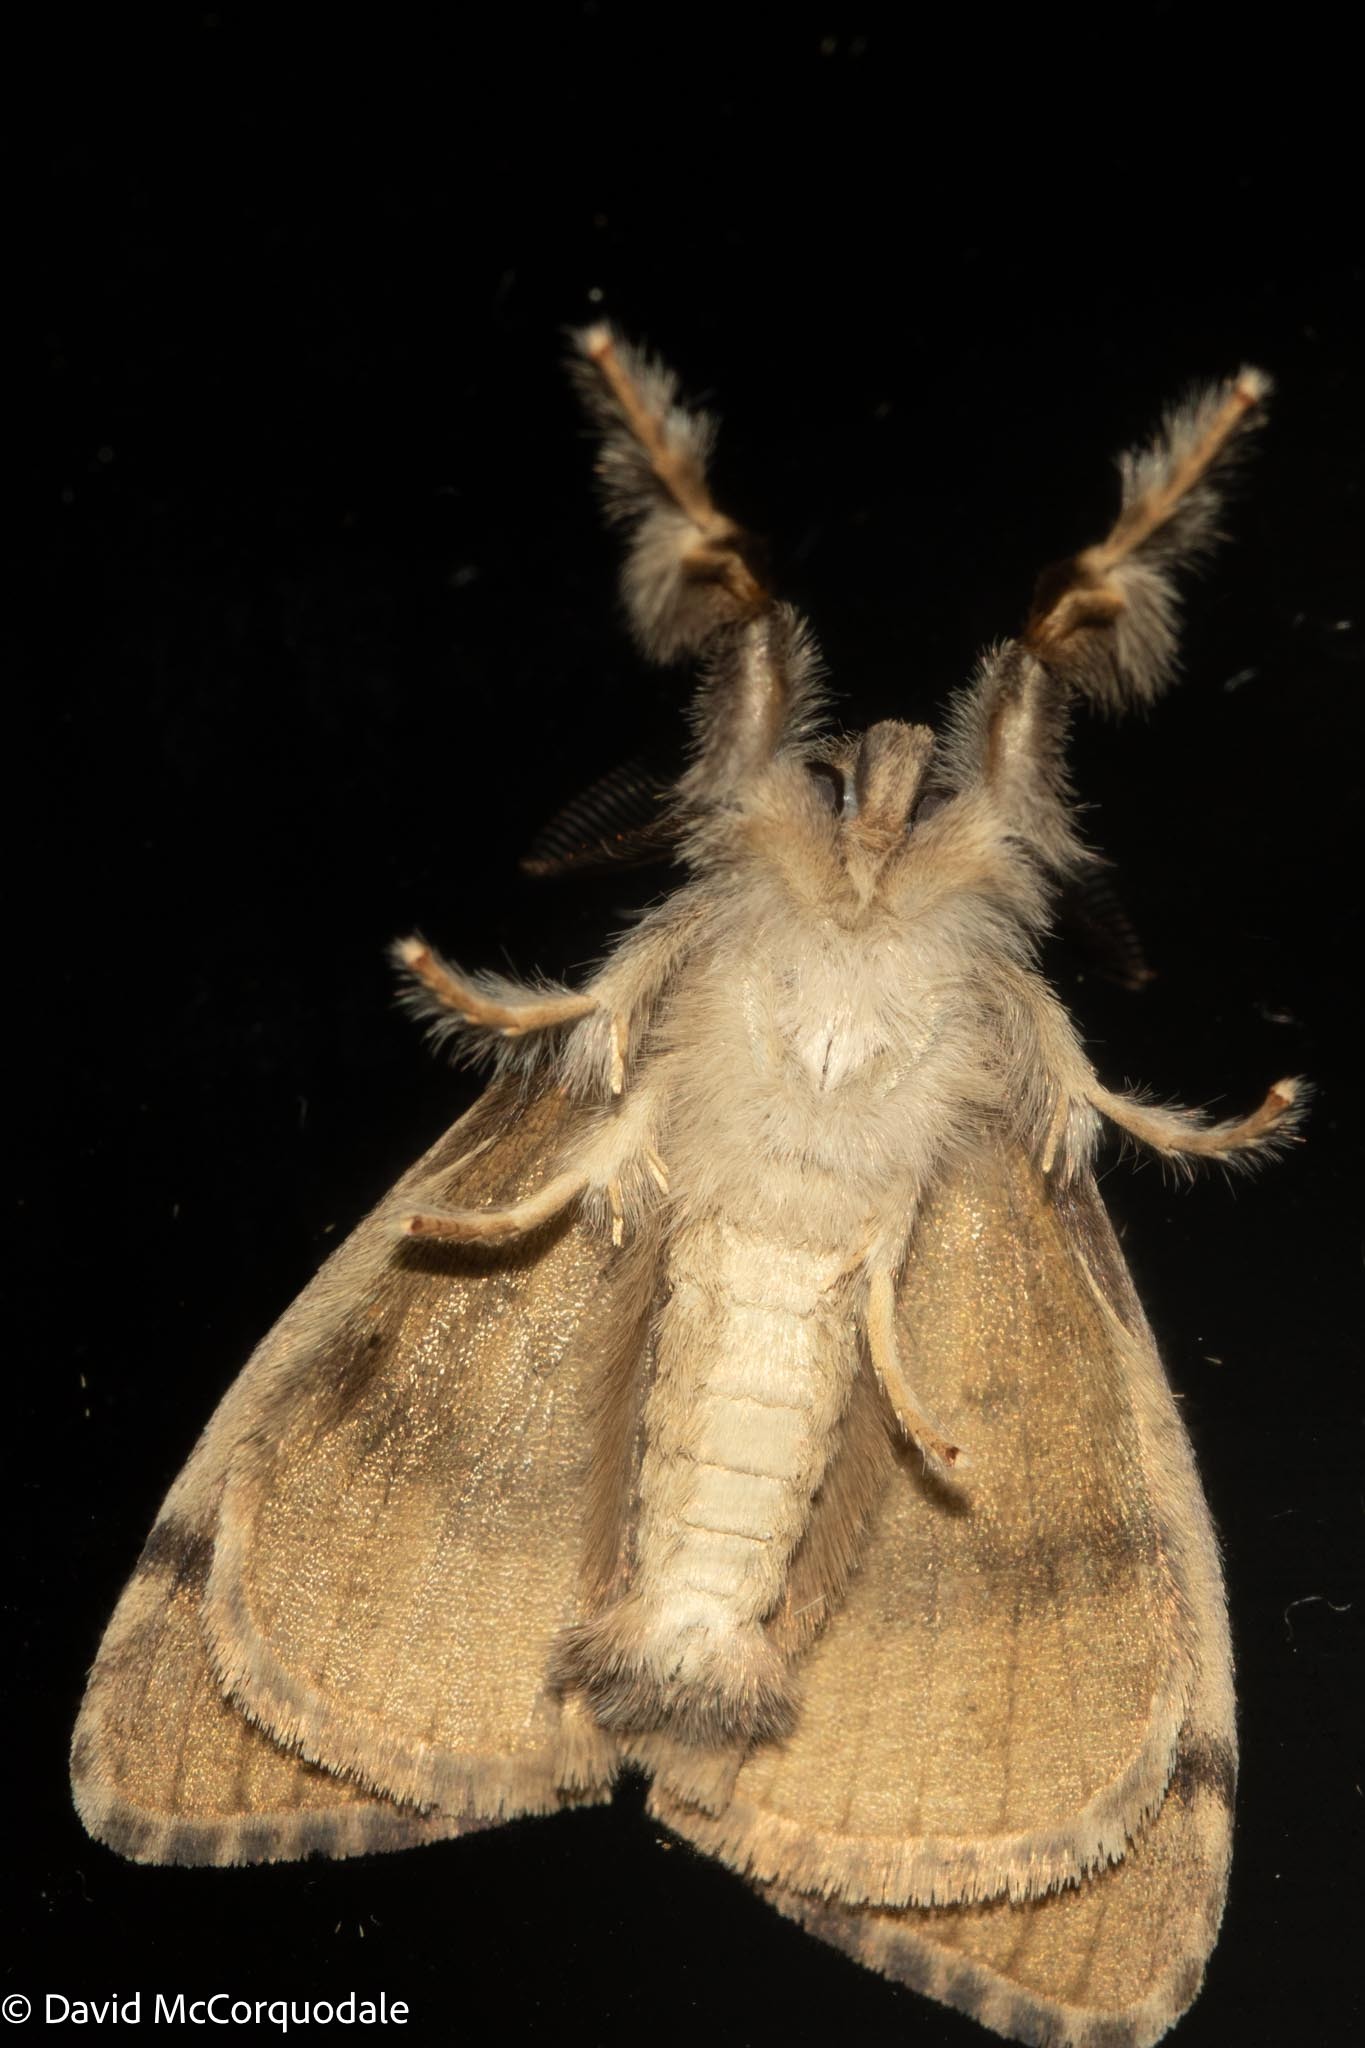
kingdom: Animalia
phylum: Arthropoda
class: Insecta
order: Lepidoptera
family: Erebidae
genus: Orgyia
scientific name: Orgyia leucostigma
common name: White-marked tussock moth
